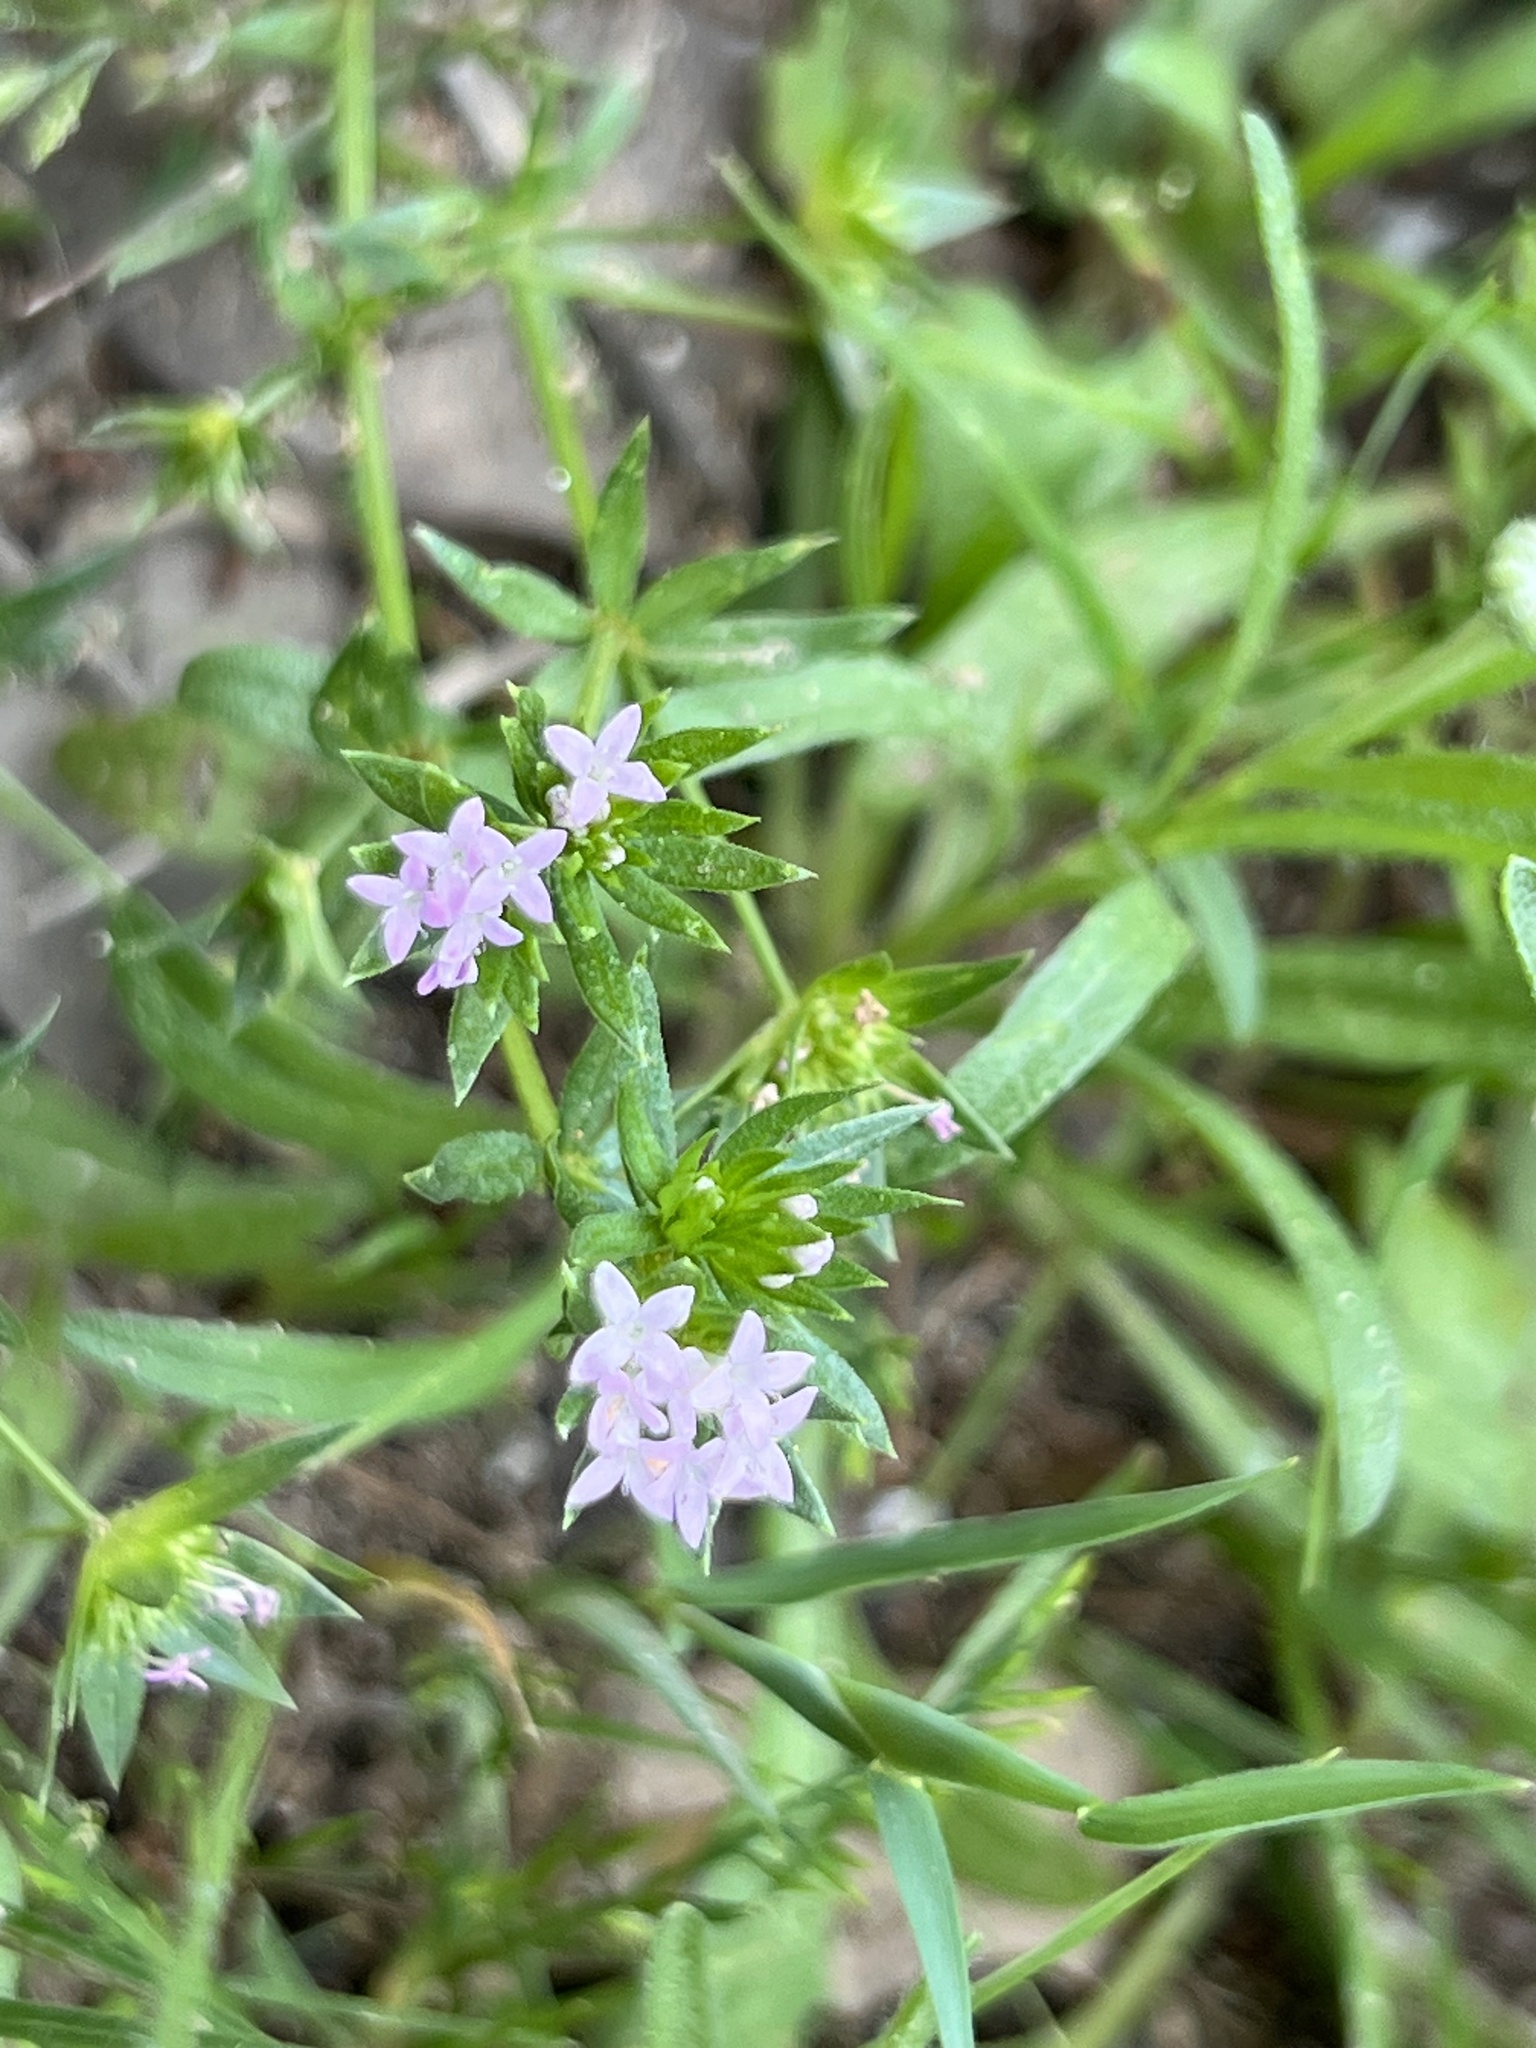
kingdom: Plantae
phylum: Tracheophyta
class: Magnoliopsida
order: Gentianales
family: Rubiaceae
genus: Sherardia
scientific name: Sherardia arvensis
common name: Field madder
